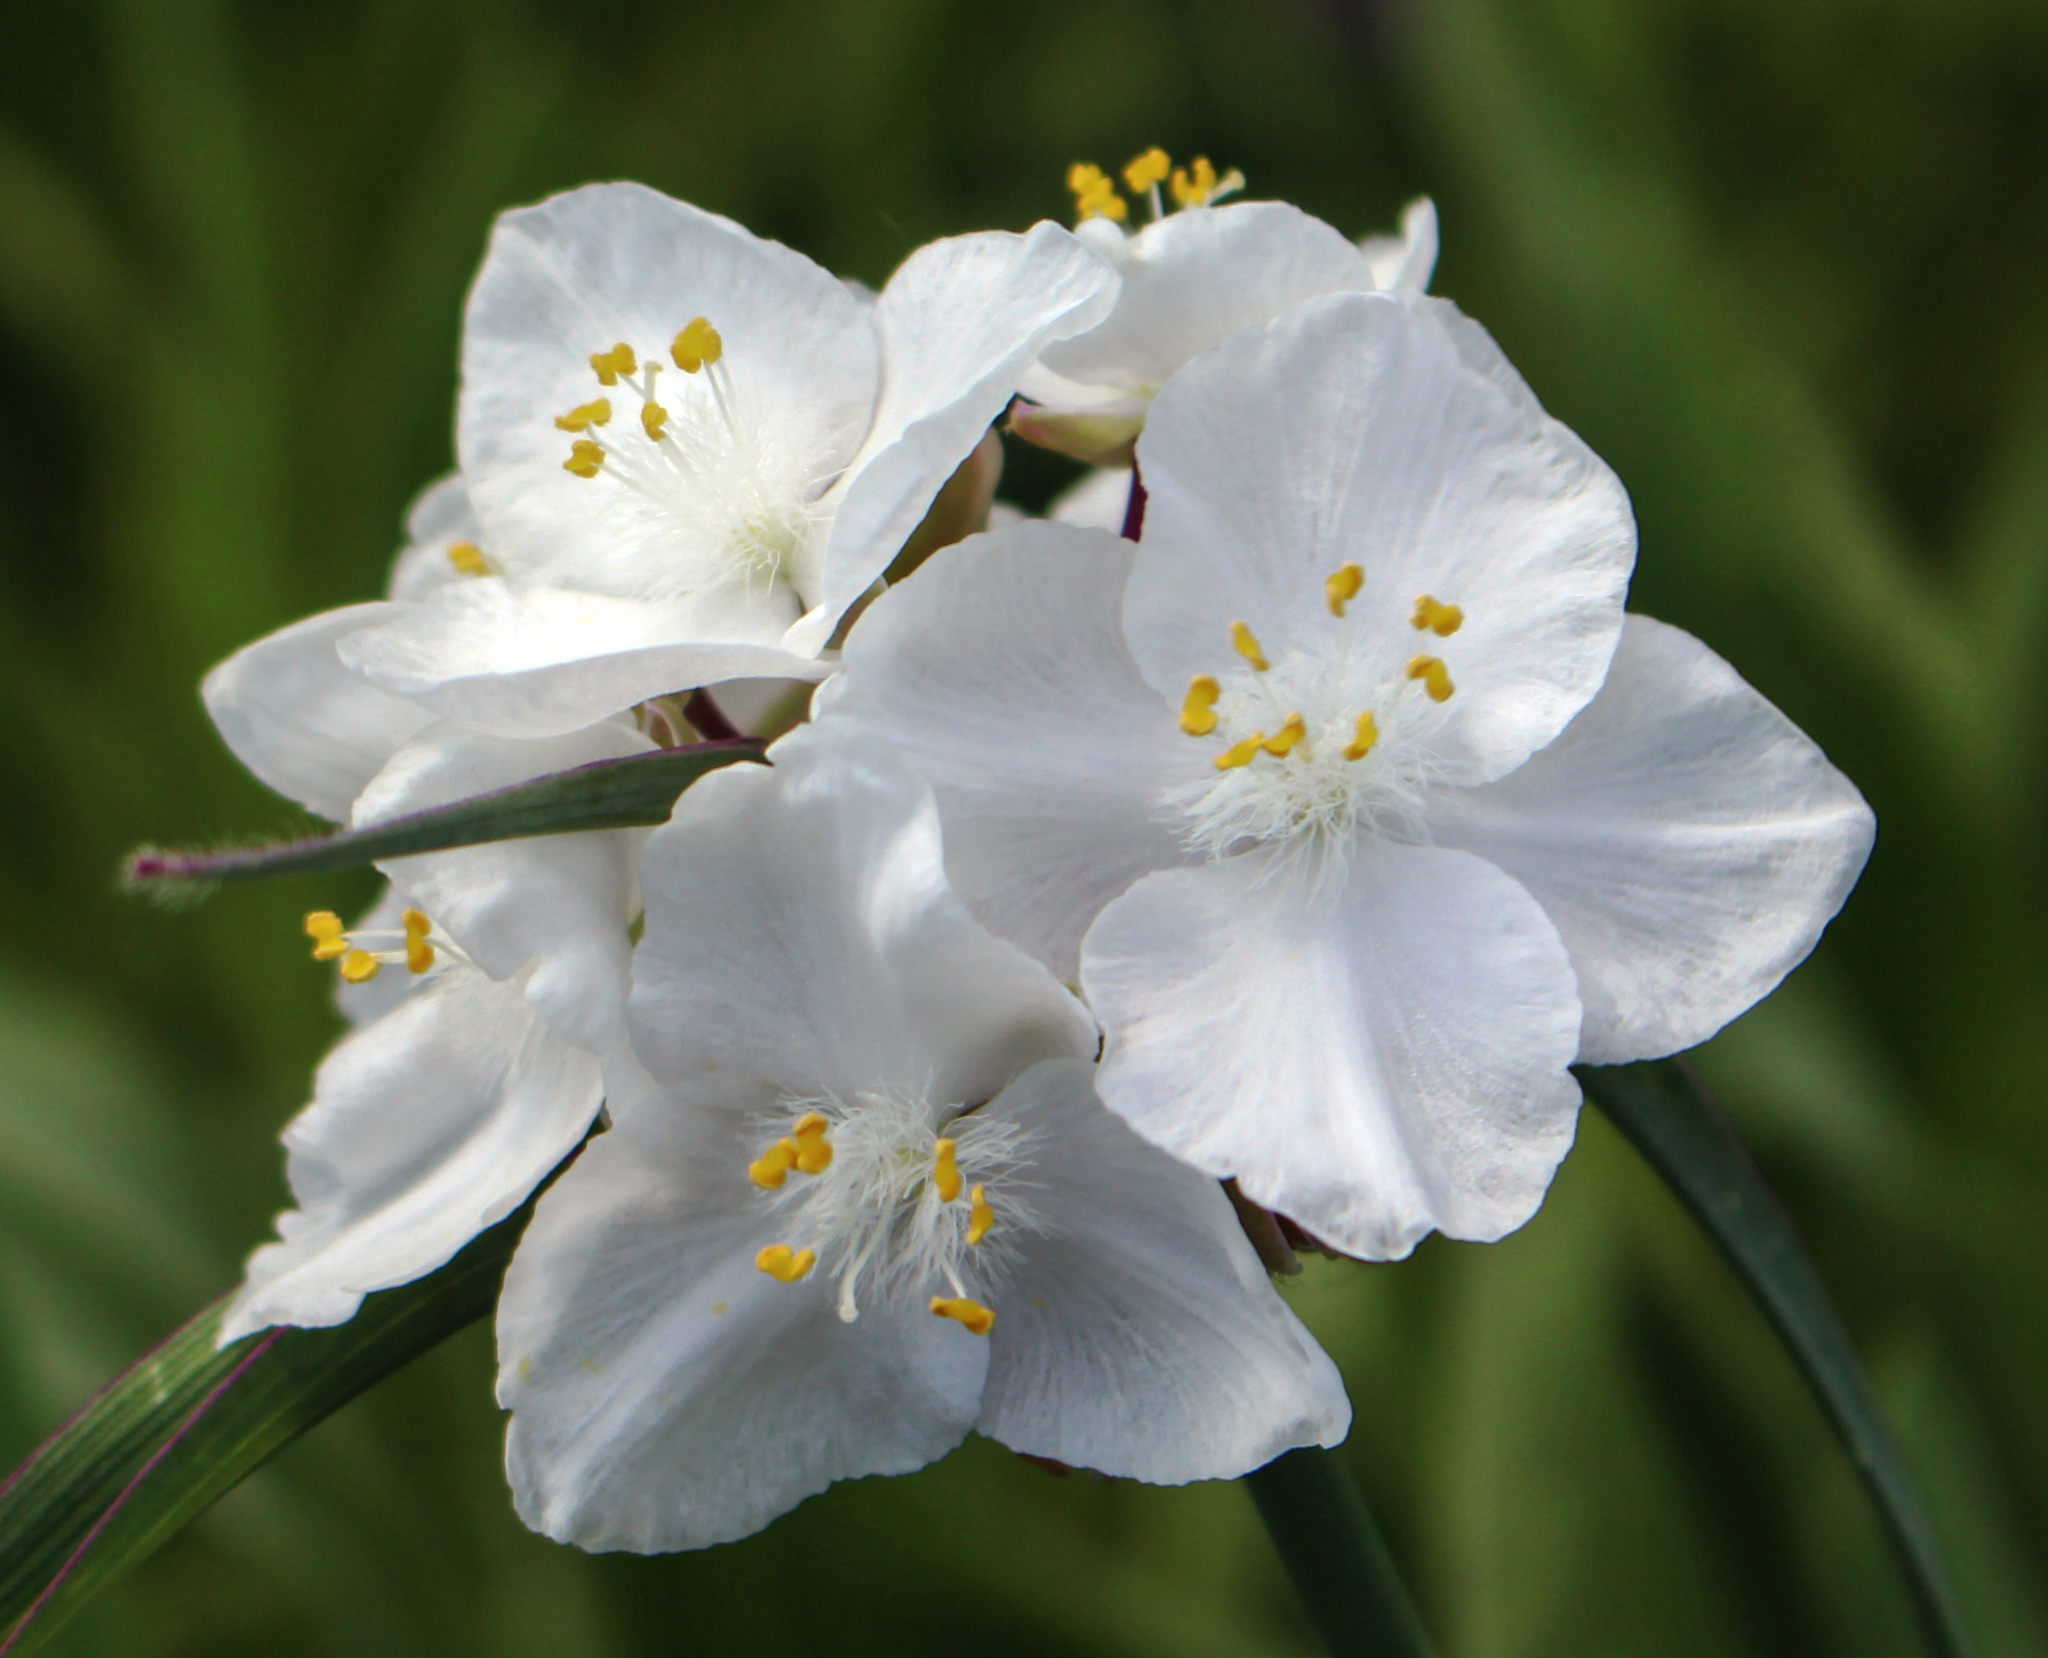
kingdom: Plantae
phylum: Tracheophyta
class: Liliopsida
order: Commelinales
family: Commelinaceae
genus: Tradescantia
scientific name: Tradescantia ohiensis
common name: Ohio spiderwort
